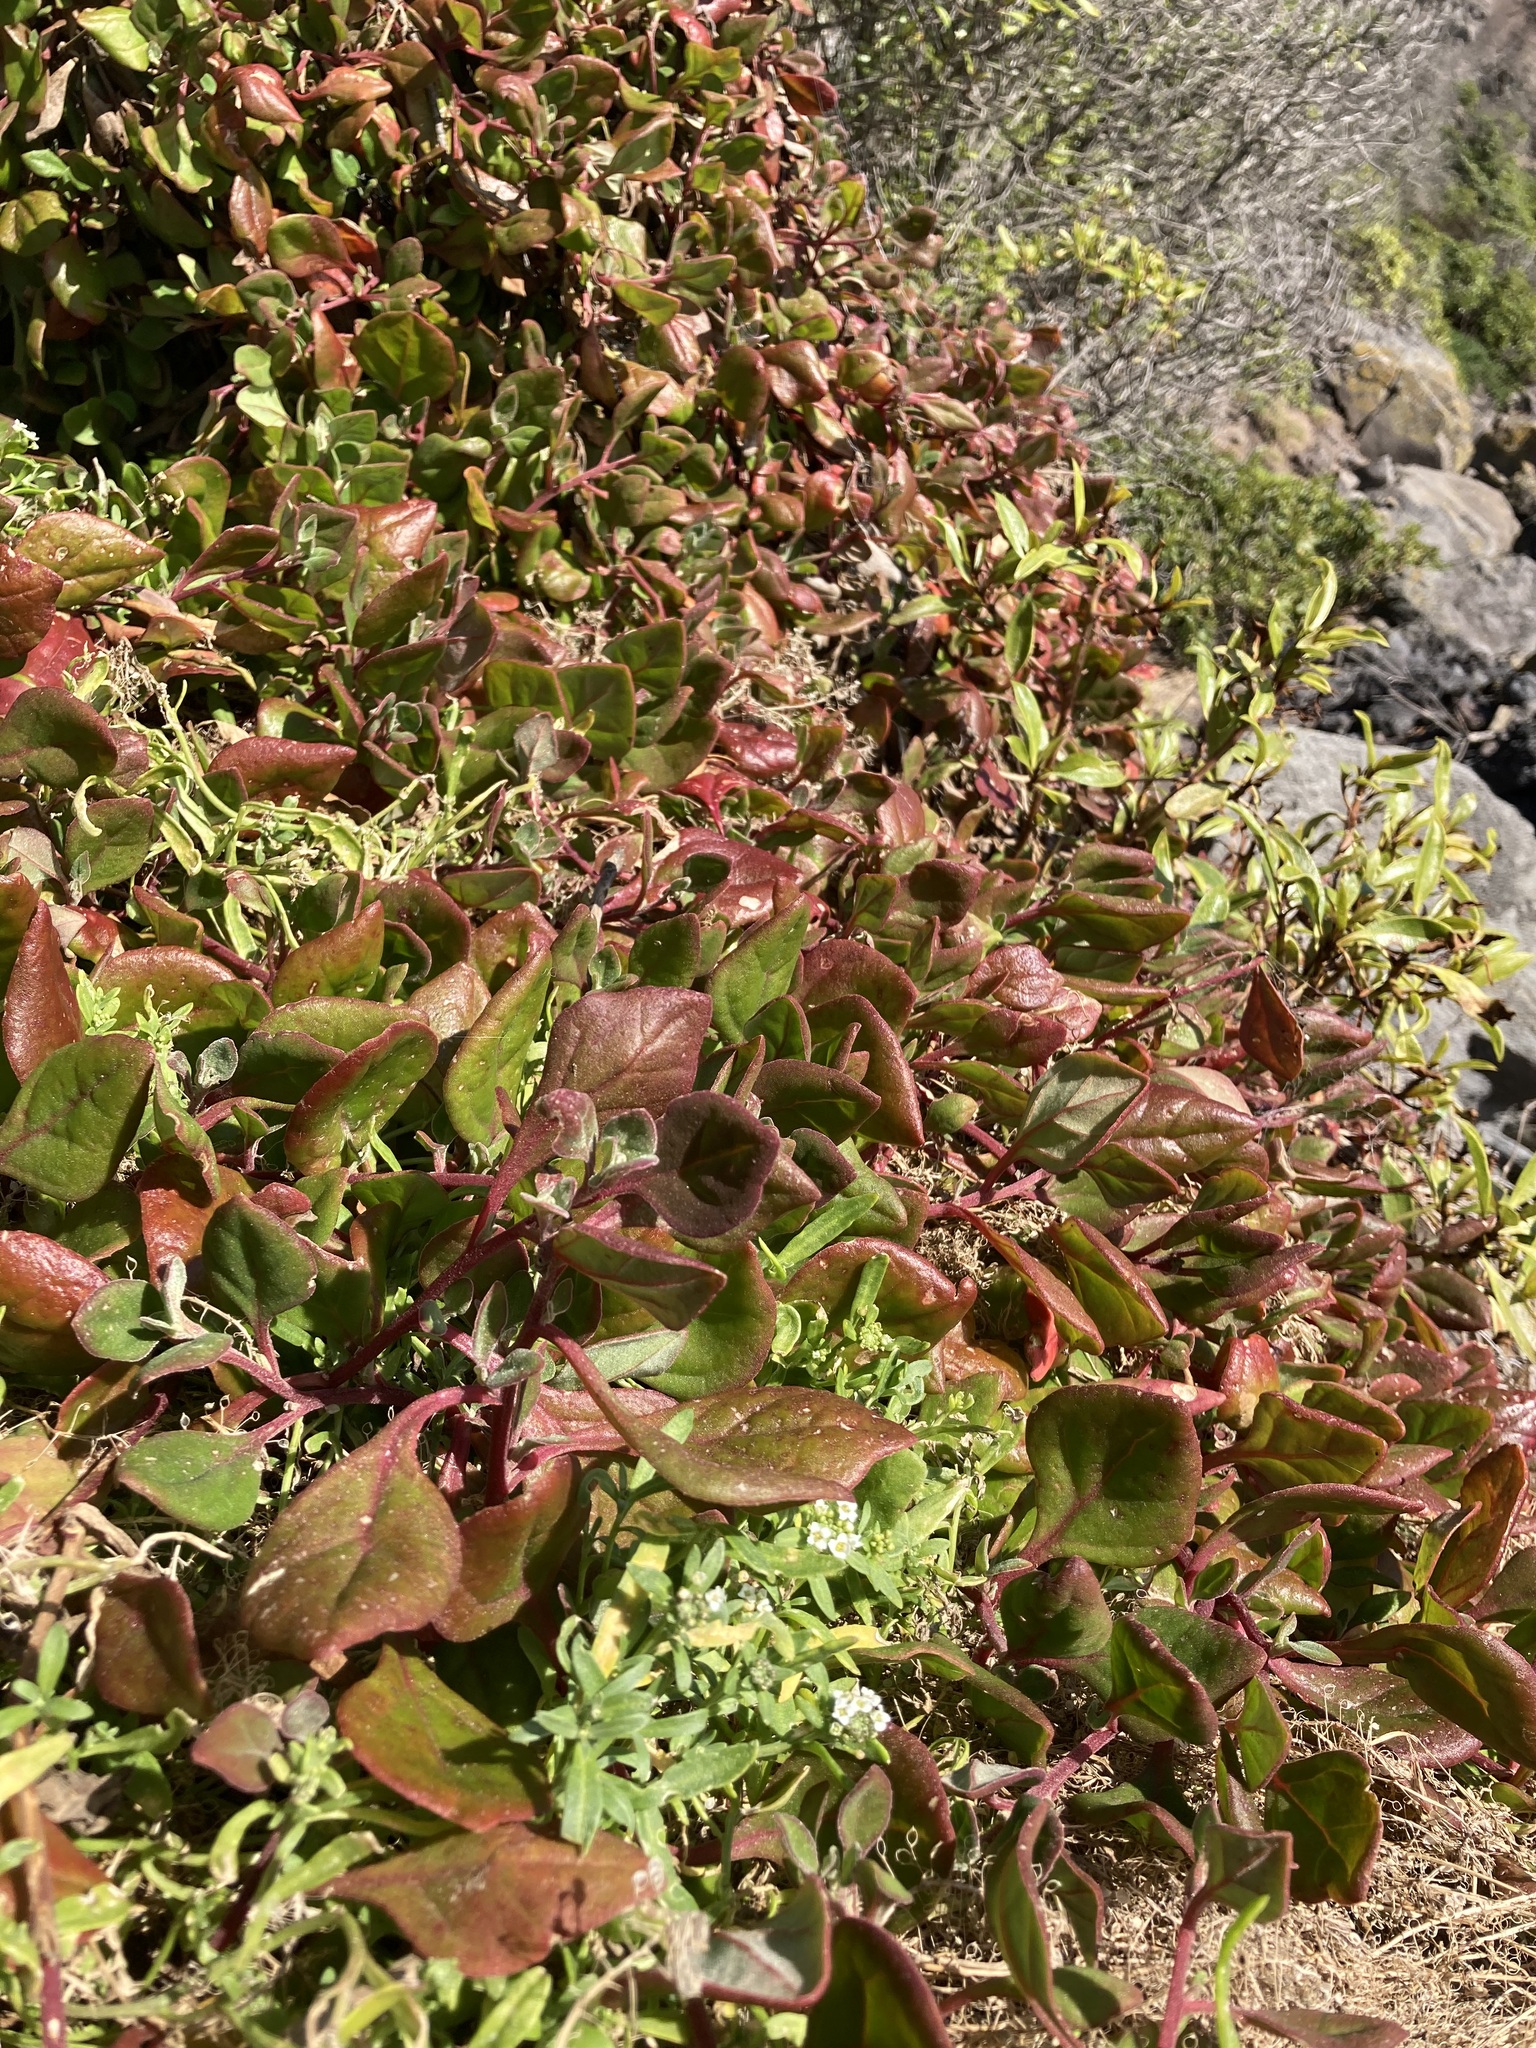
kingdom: Plantae
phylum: Tracheophyta
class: Magnoliopsida
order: Caryophyllales
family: Aizoaceae
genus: Tetragonia
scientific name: Tetragonia implexicoma
